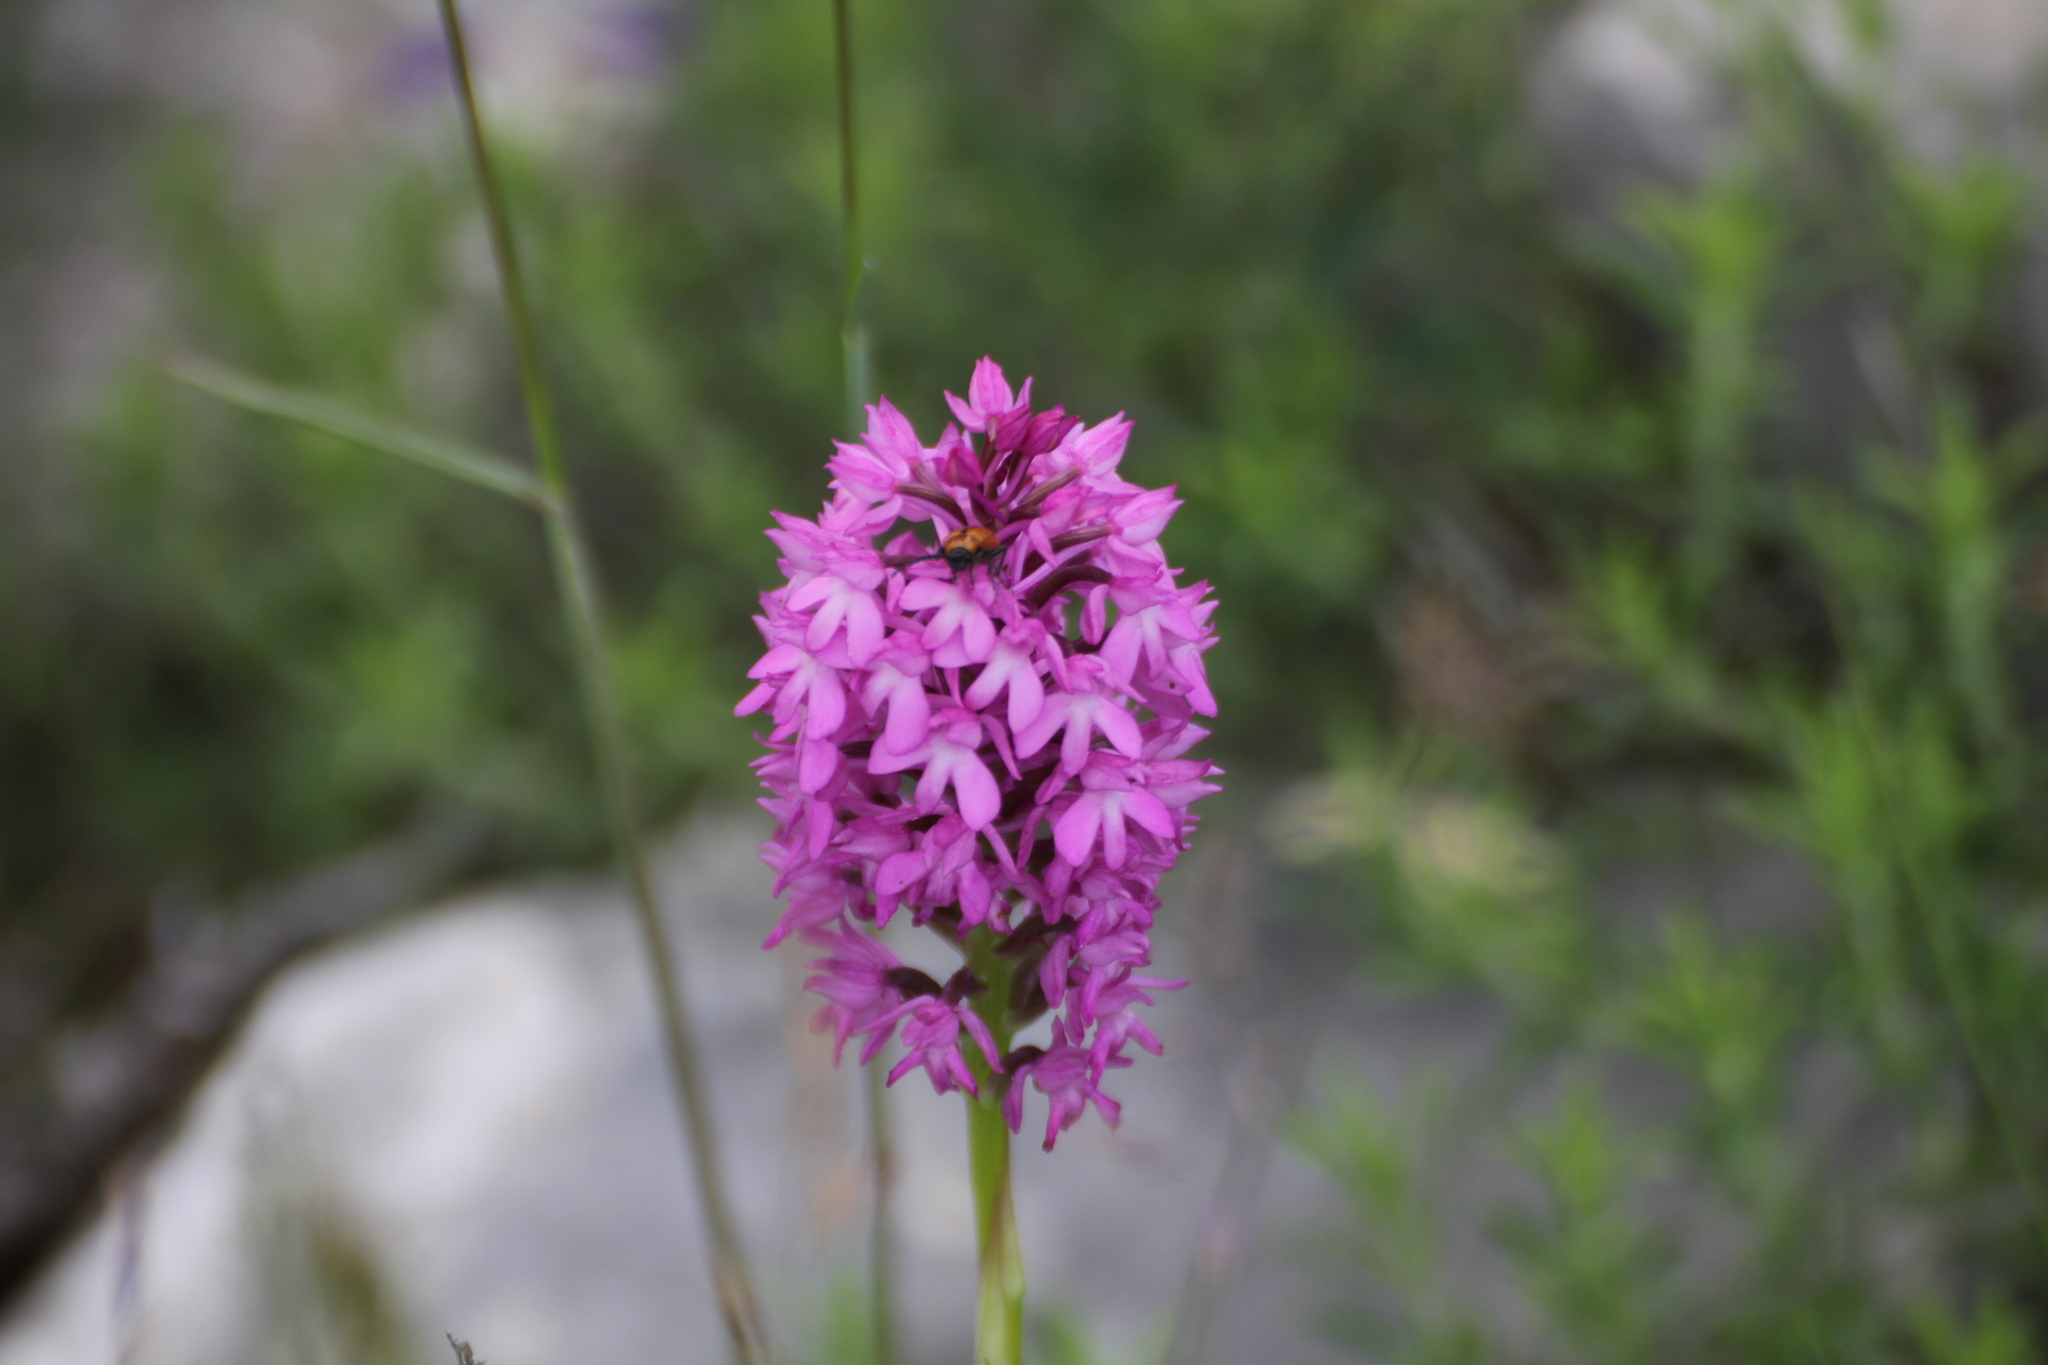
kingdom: Plantae
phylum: Tracheophyta
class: Liliopsida
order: Asparagales
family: Orchidaceae
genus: Anacamptis
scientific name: Anacamptis pyramidalis
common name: Pyramidal orchid
